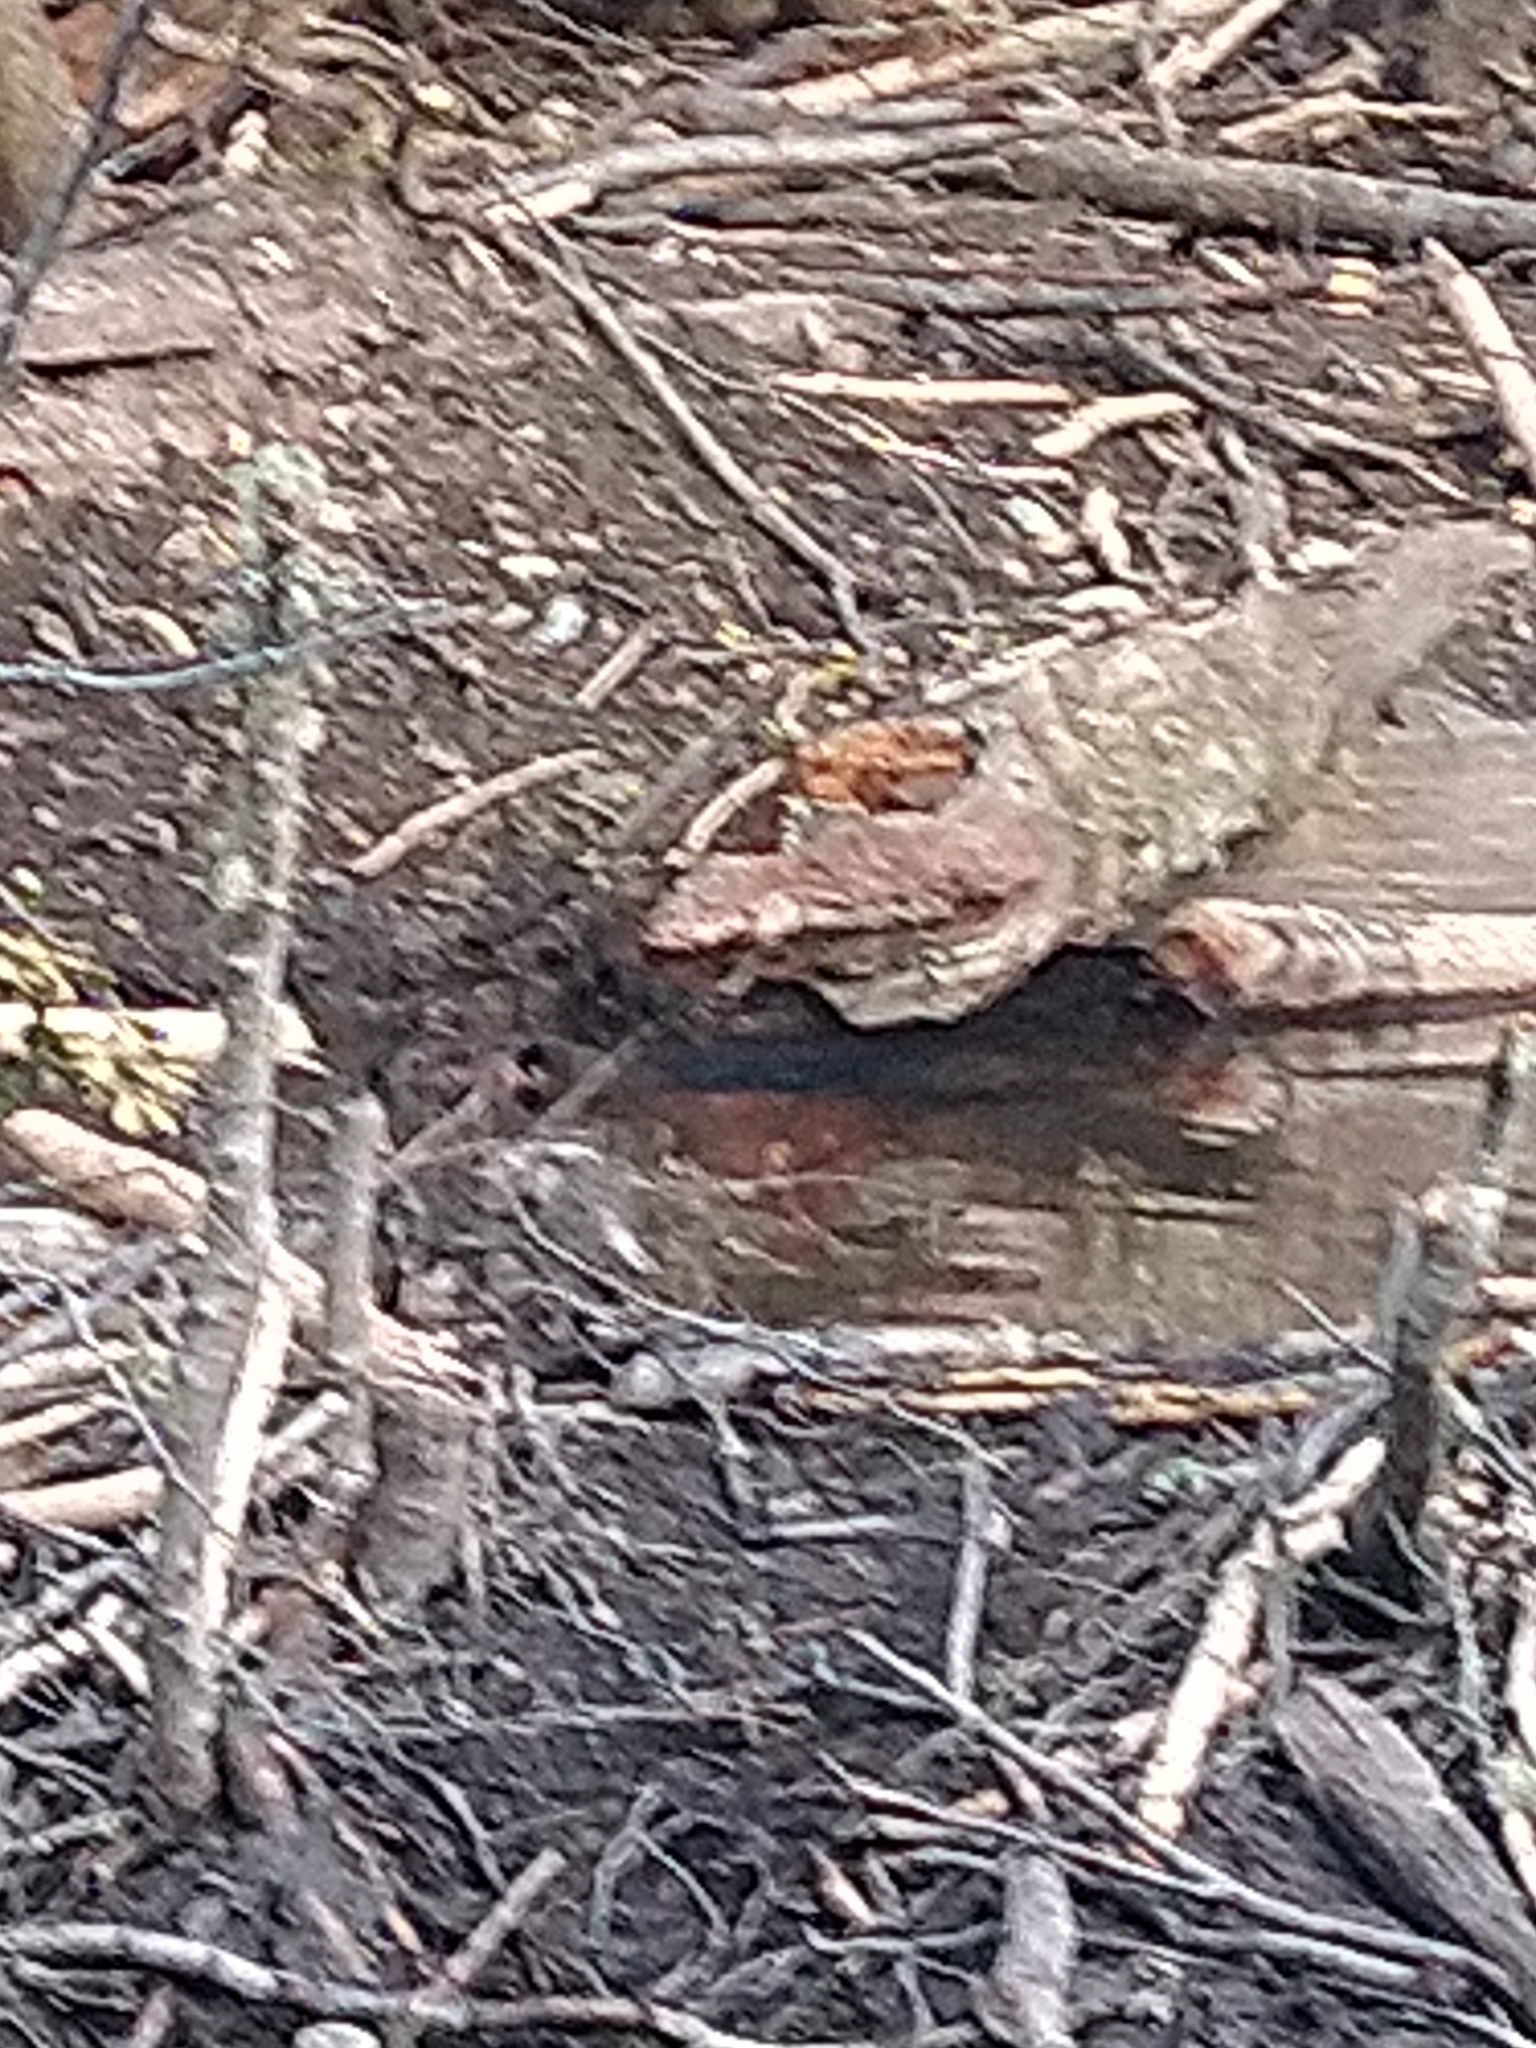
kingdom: Animalia
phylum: Chordata
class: Mammalia
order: Rodentia
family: Castoridae
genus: Castor
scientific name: Castor canadensis
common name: American beaver
